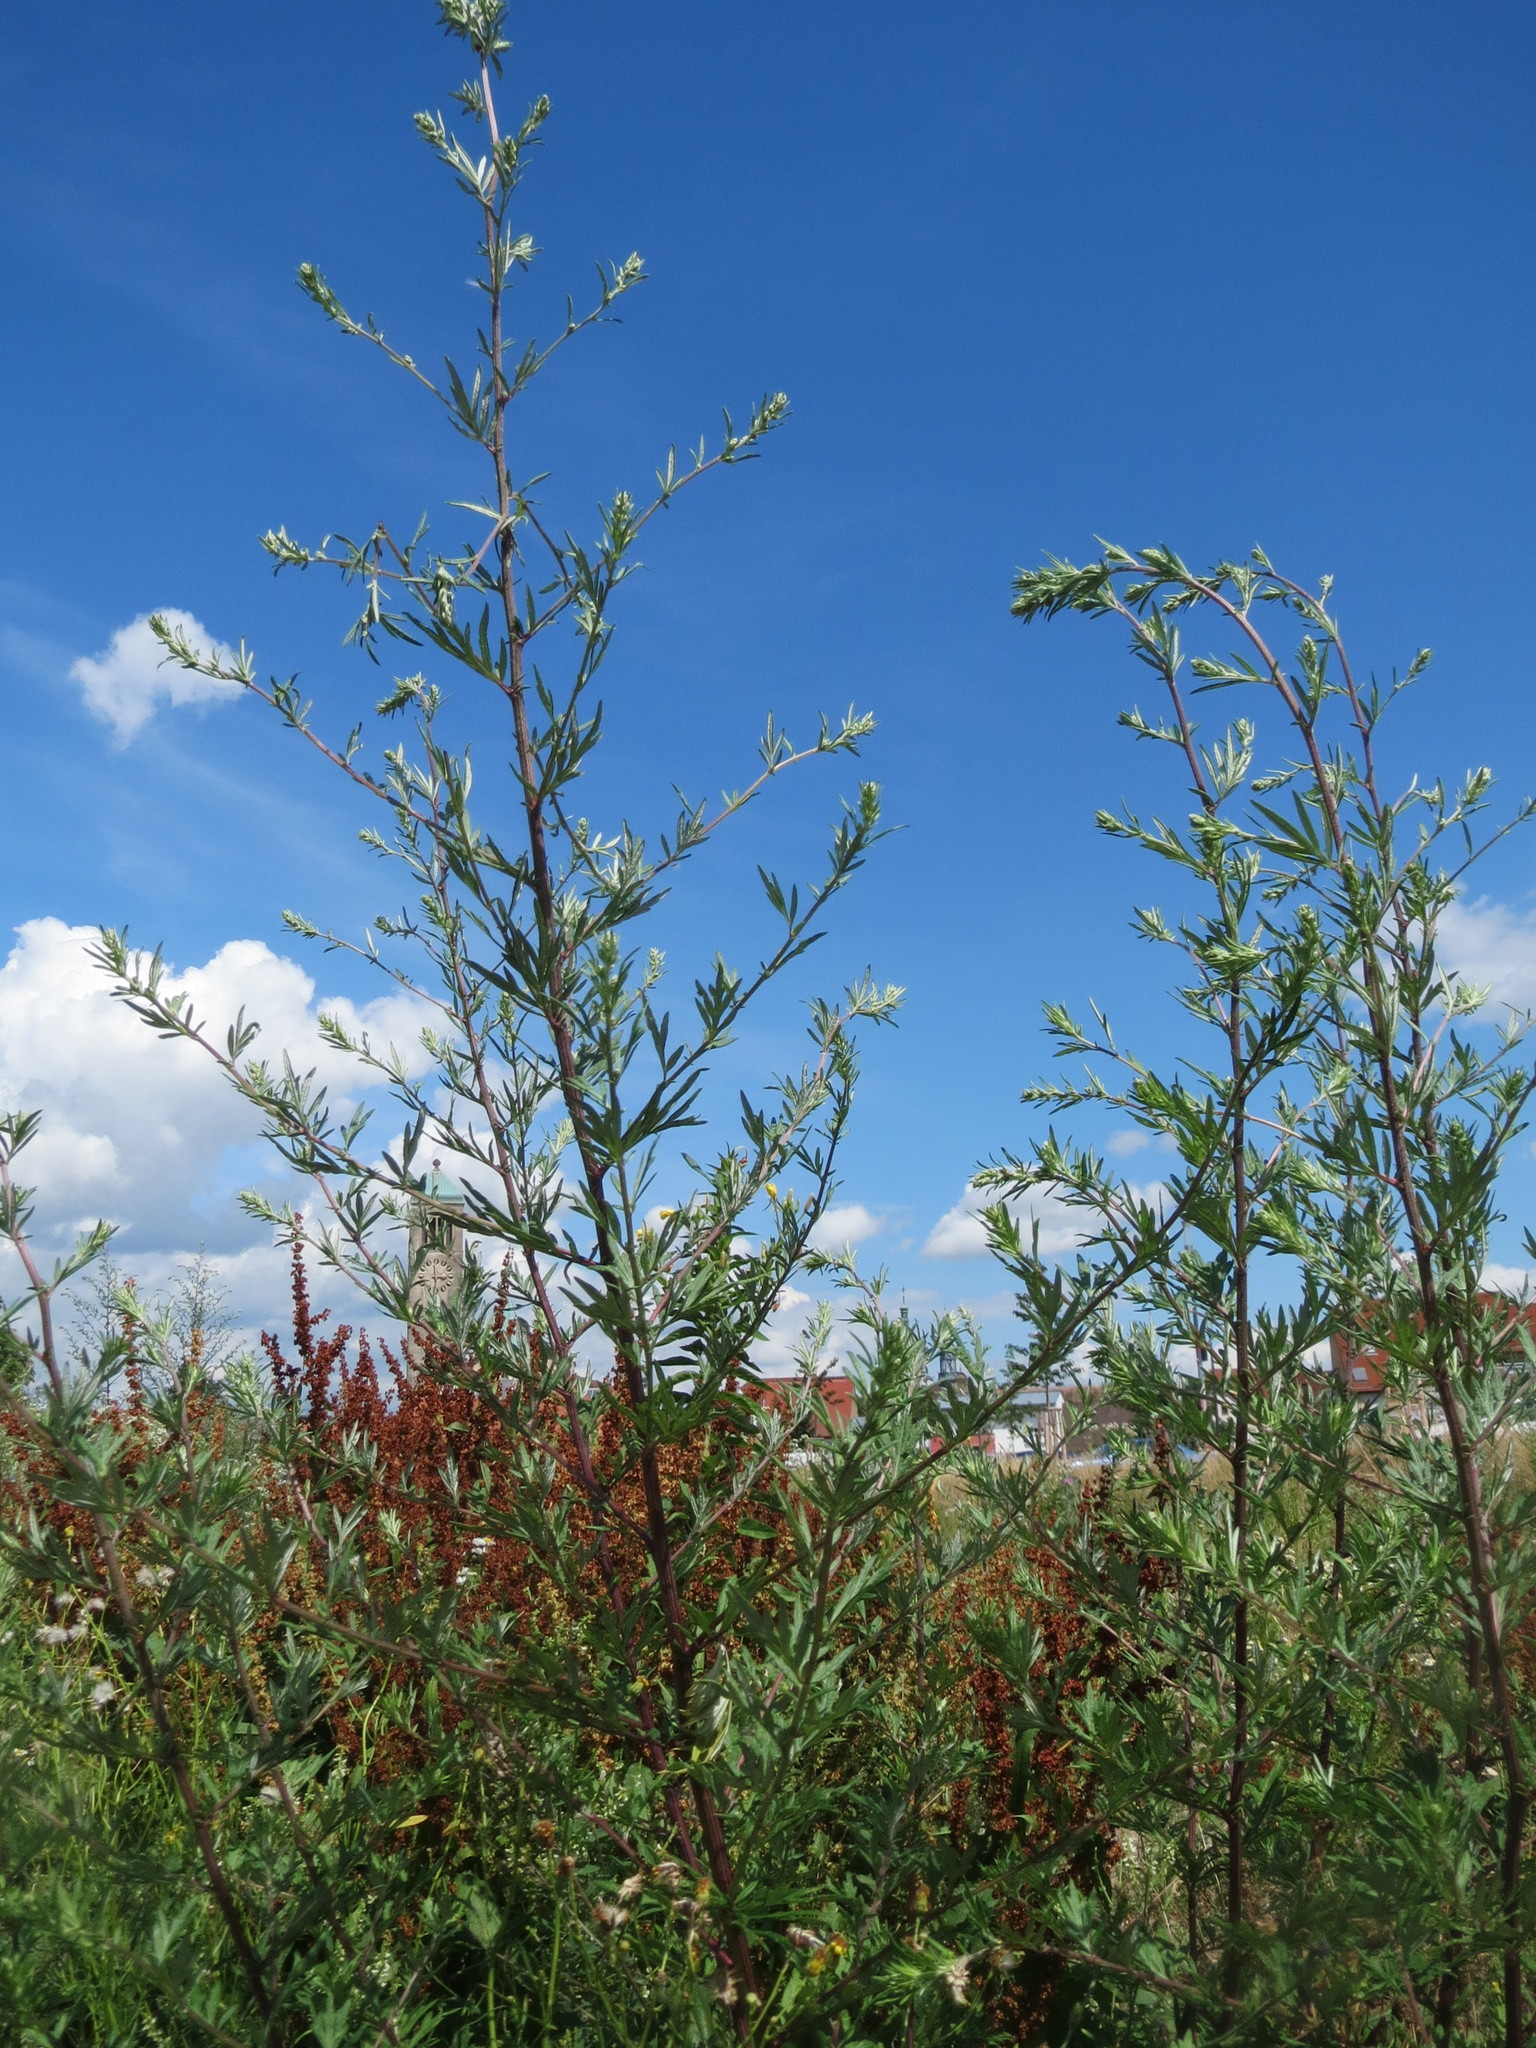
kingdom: Plantae
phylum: Tracheophyta
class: Magnoliopsida
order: Asterales
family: Asteraceae
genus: Artemisia
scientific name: Artemisia vulgaris
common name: Mugwort
